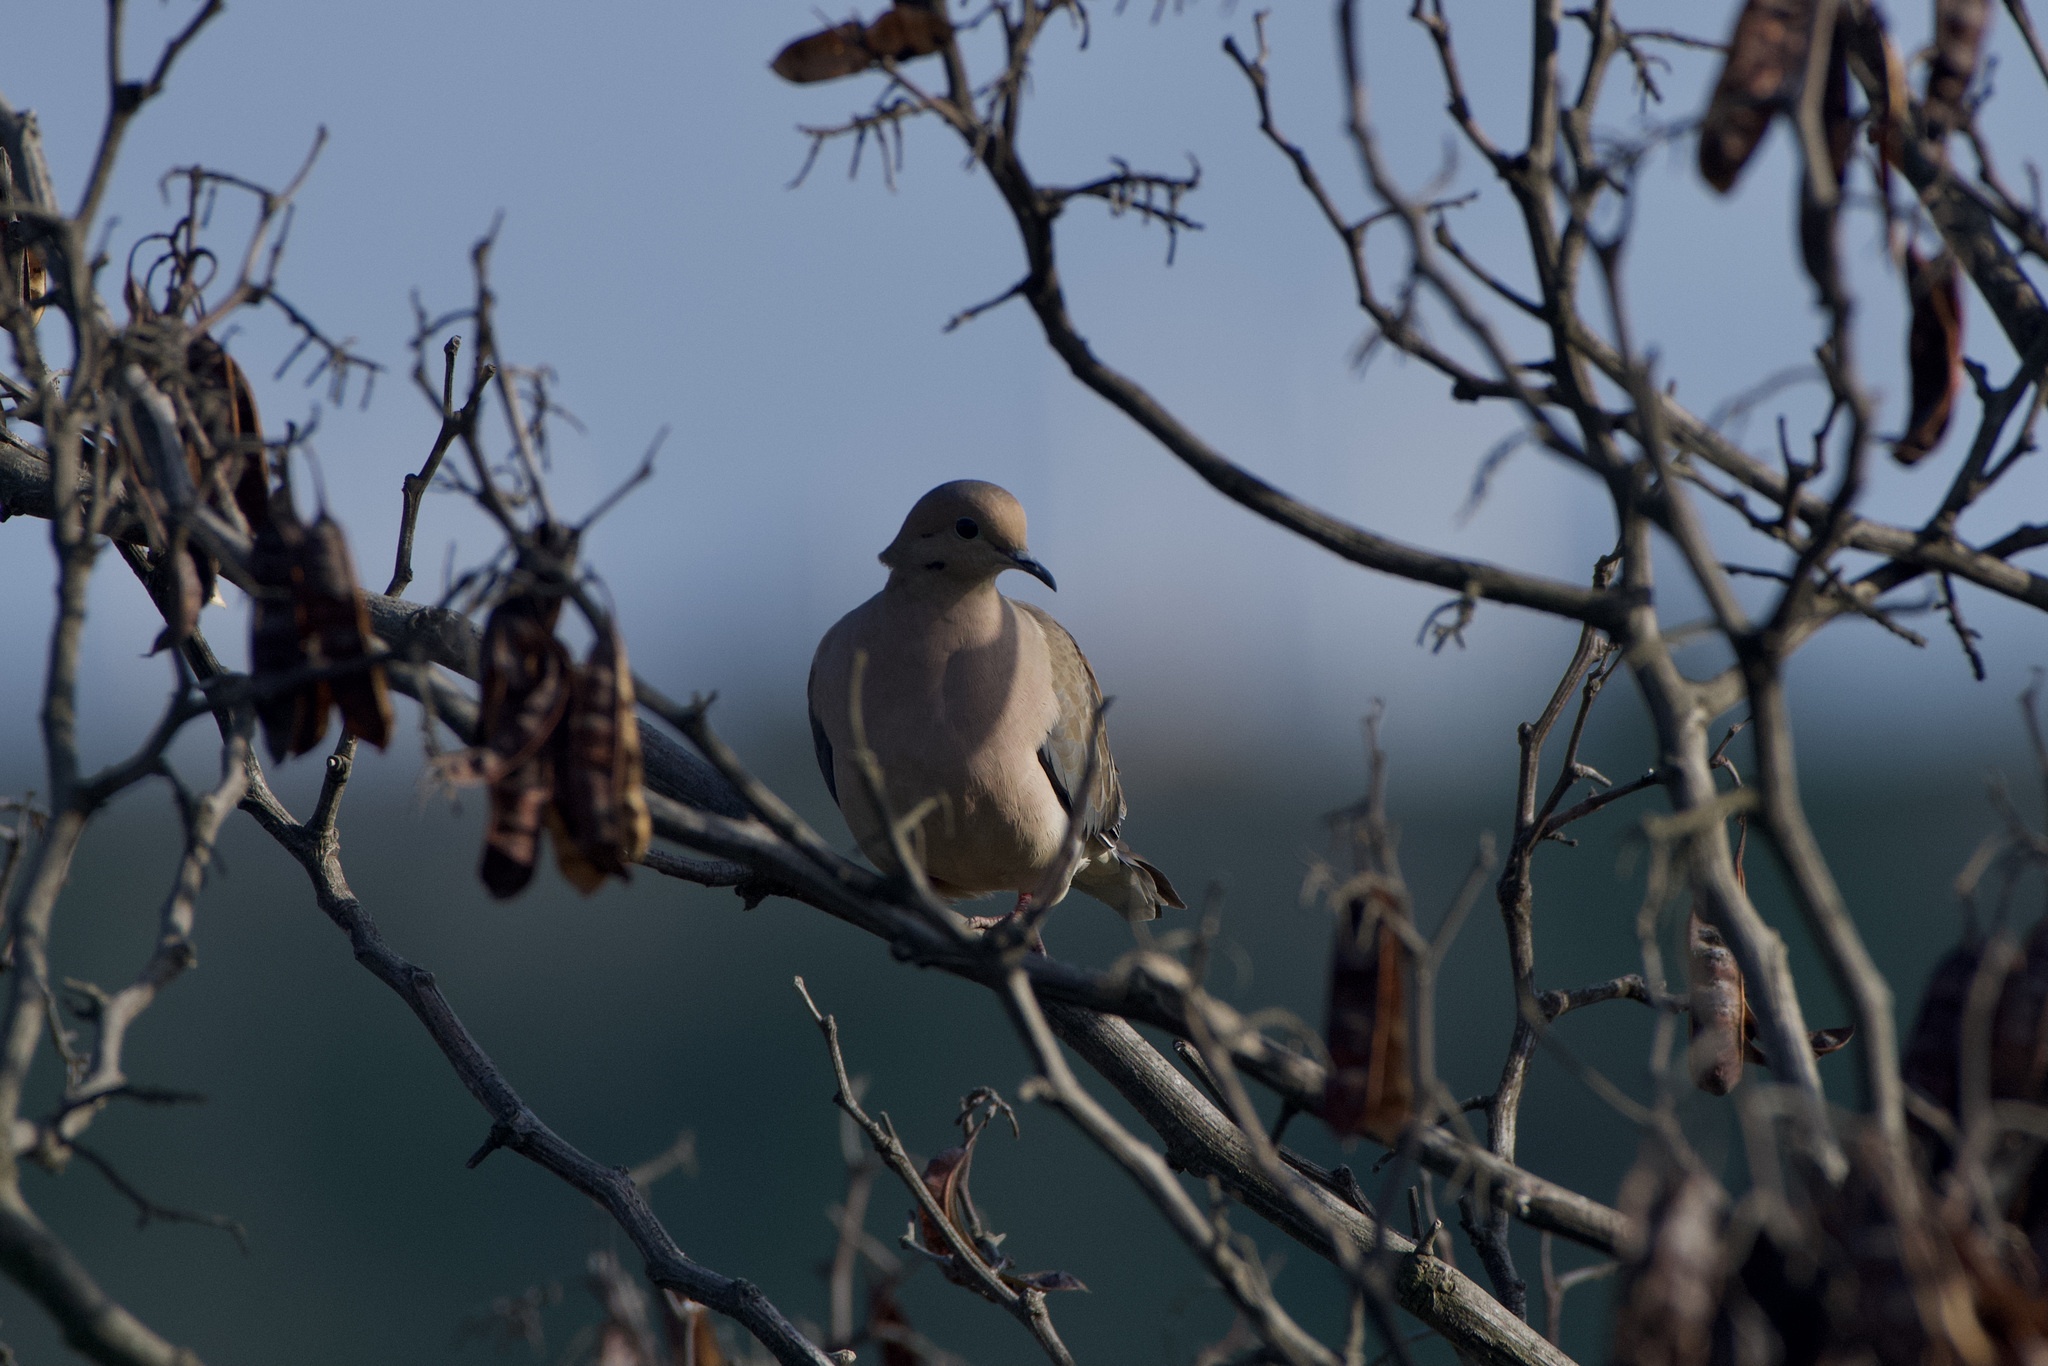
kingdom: Animalia
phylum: Chordata
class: Aves
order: Columbiformes
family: Columbidae
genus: Zenaida
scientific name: Zenaida macroura
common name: Mourning dove
